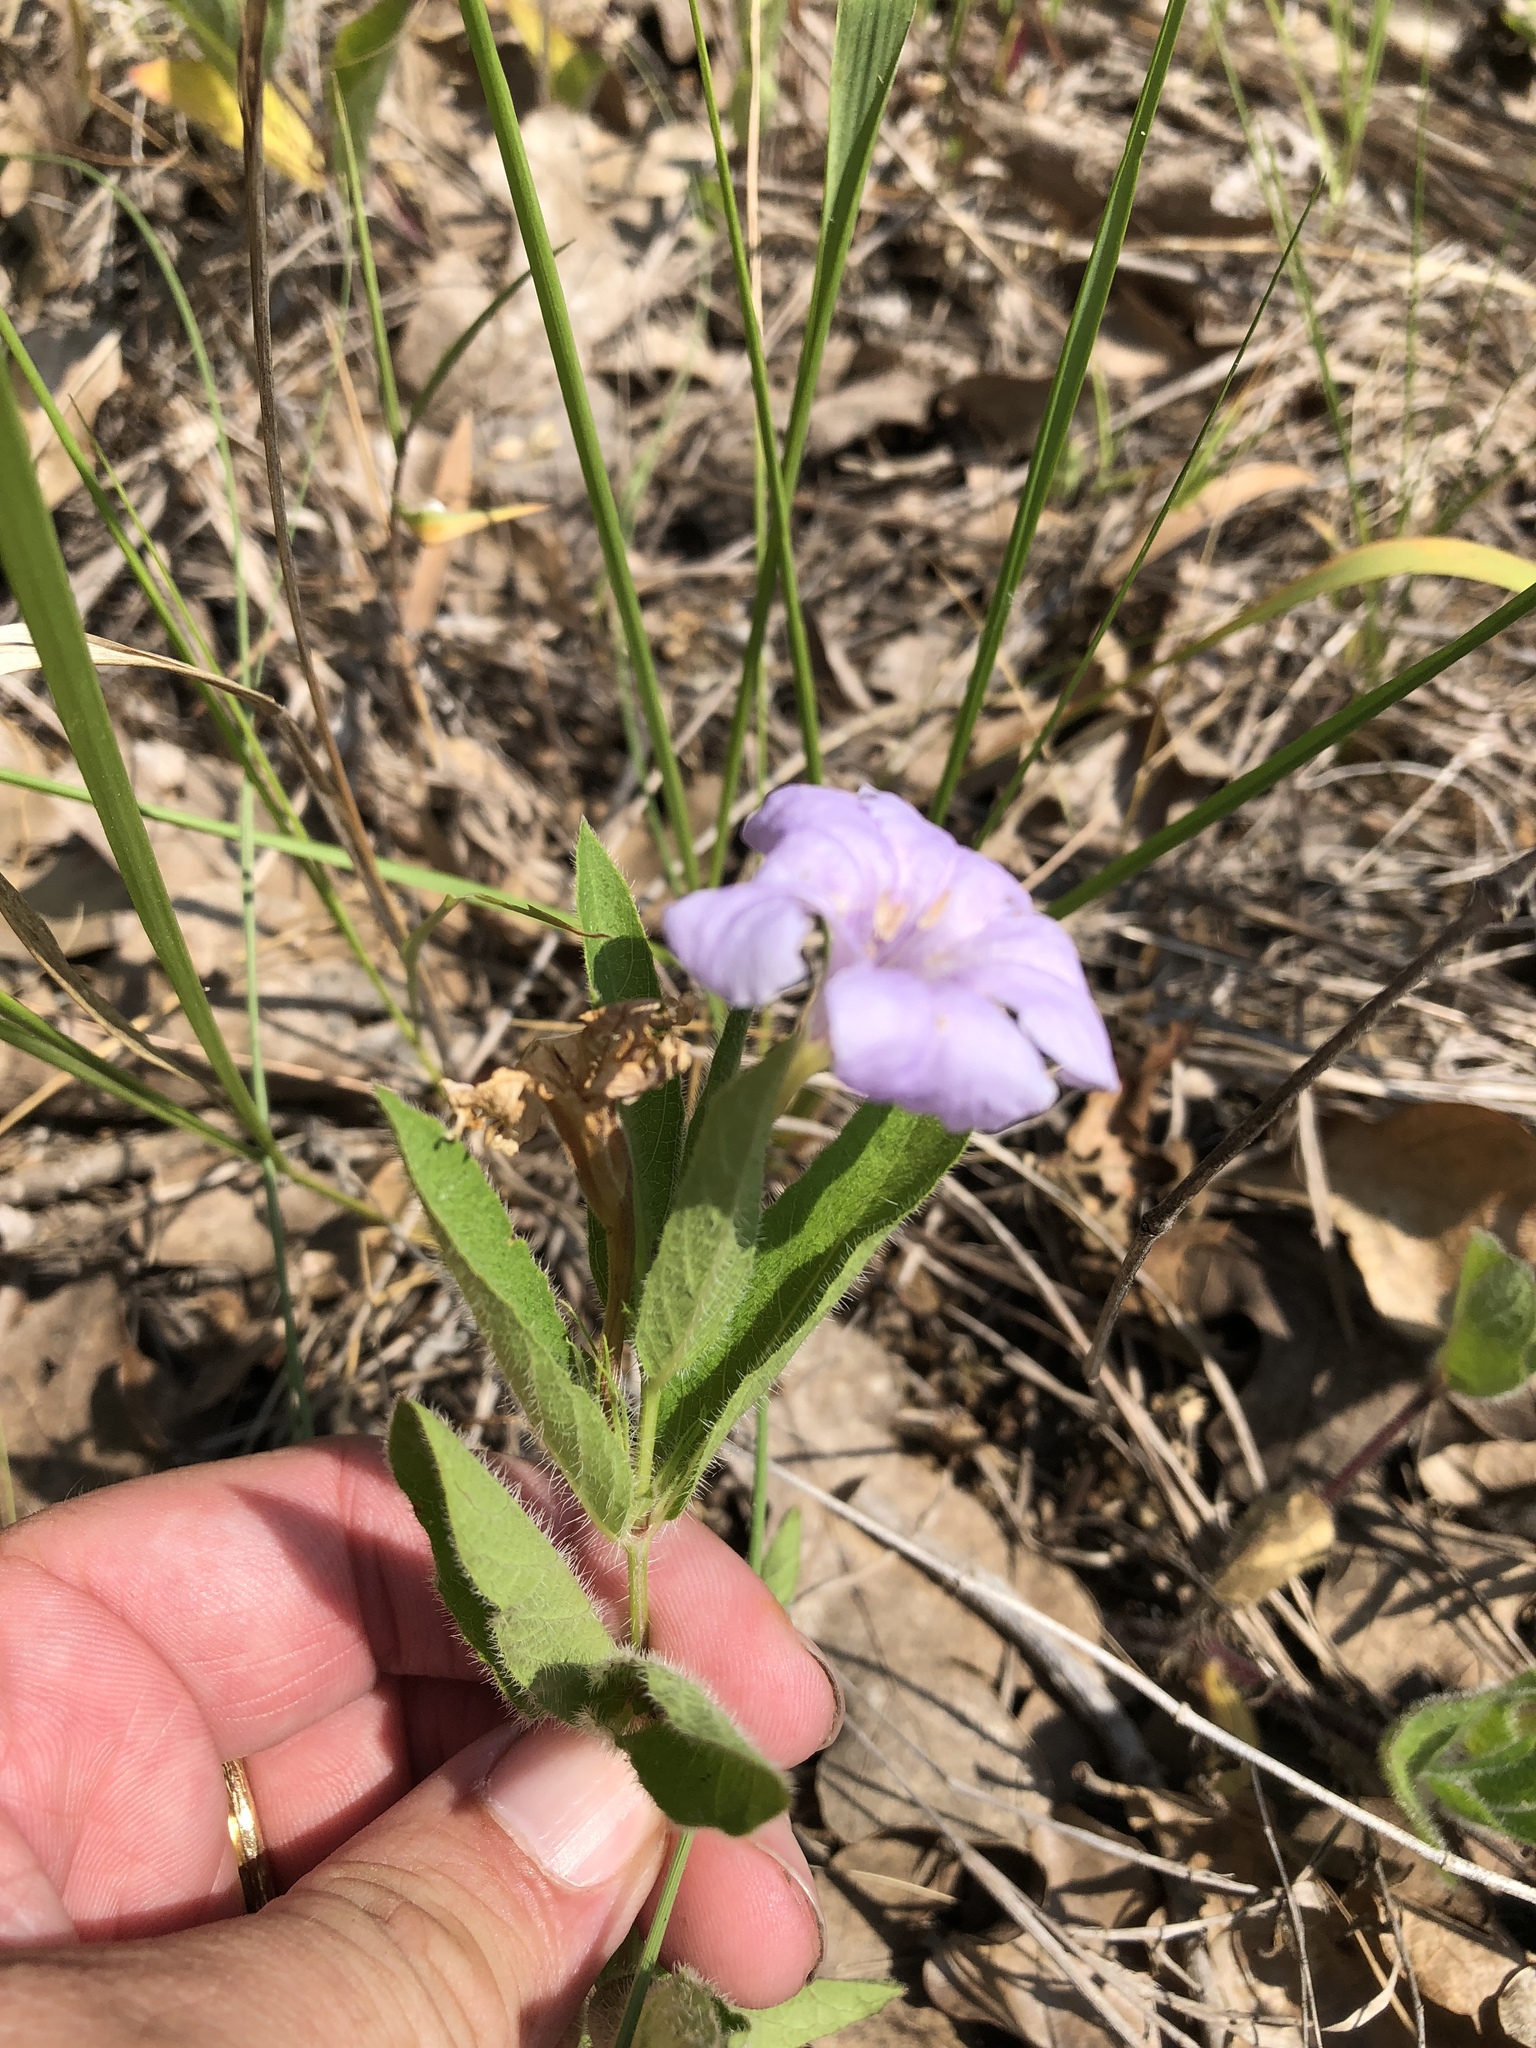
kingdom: Plantae
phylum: Tracheophyta
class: Magnoliopsida
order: Lamiales
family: Acanthaceae
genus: Ruellia
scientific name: Ruellia humilis
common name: Fringe-leaf ruellia
